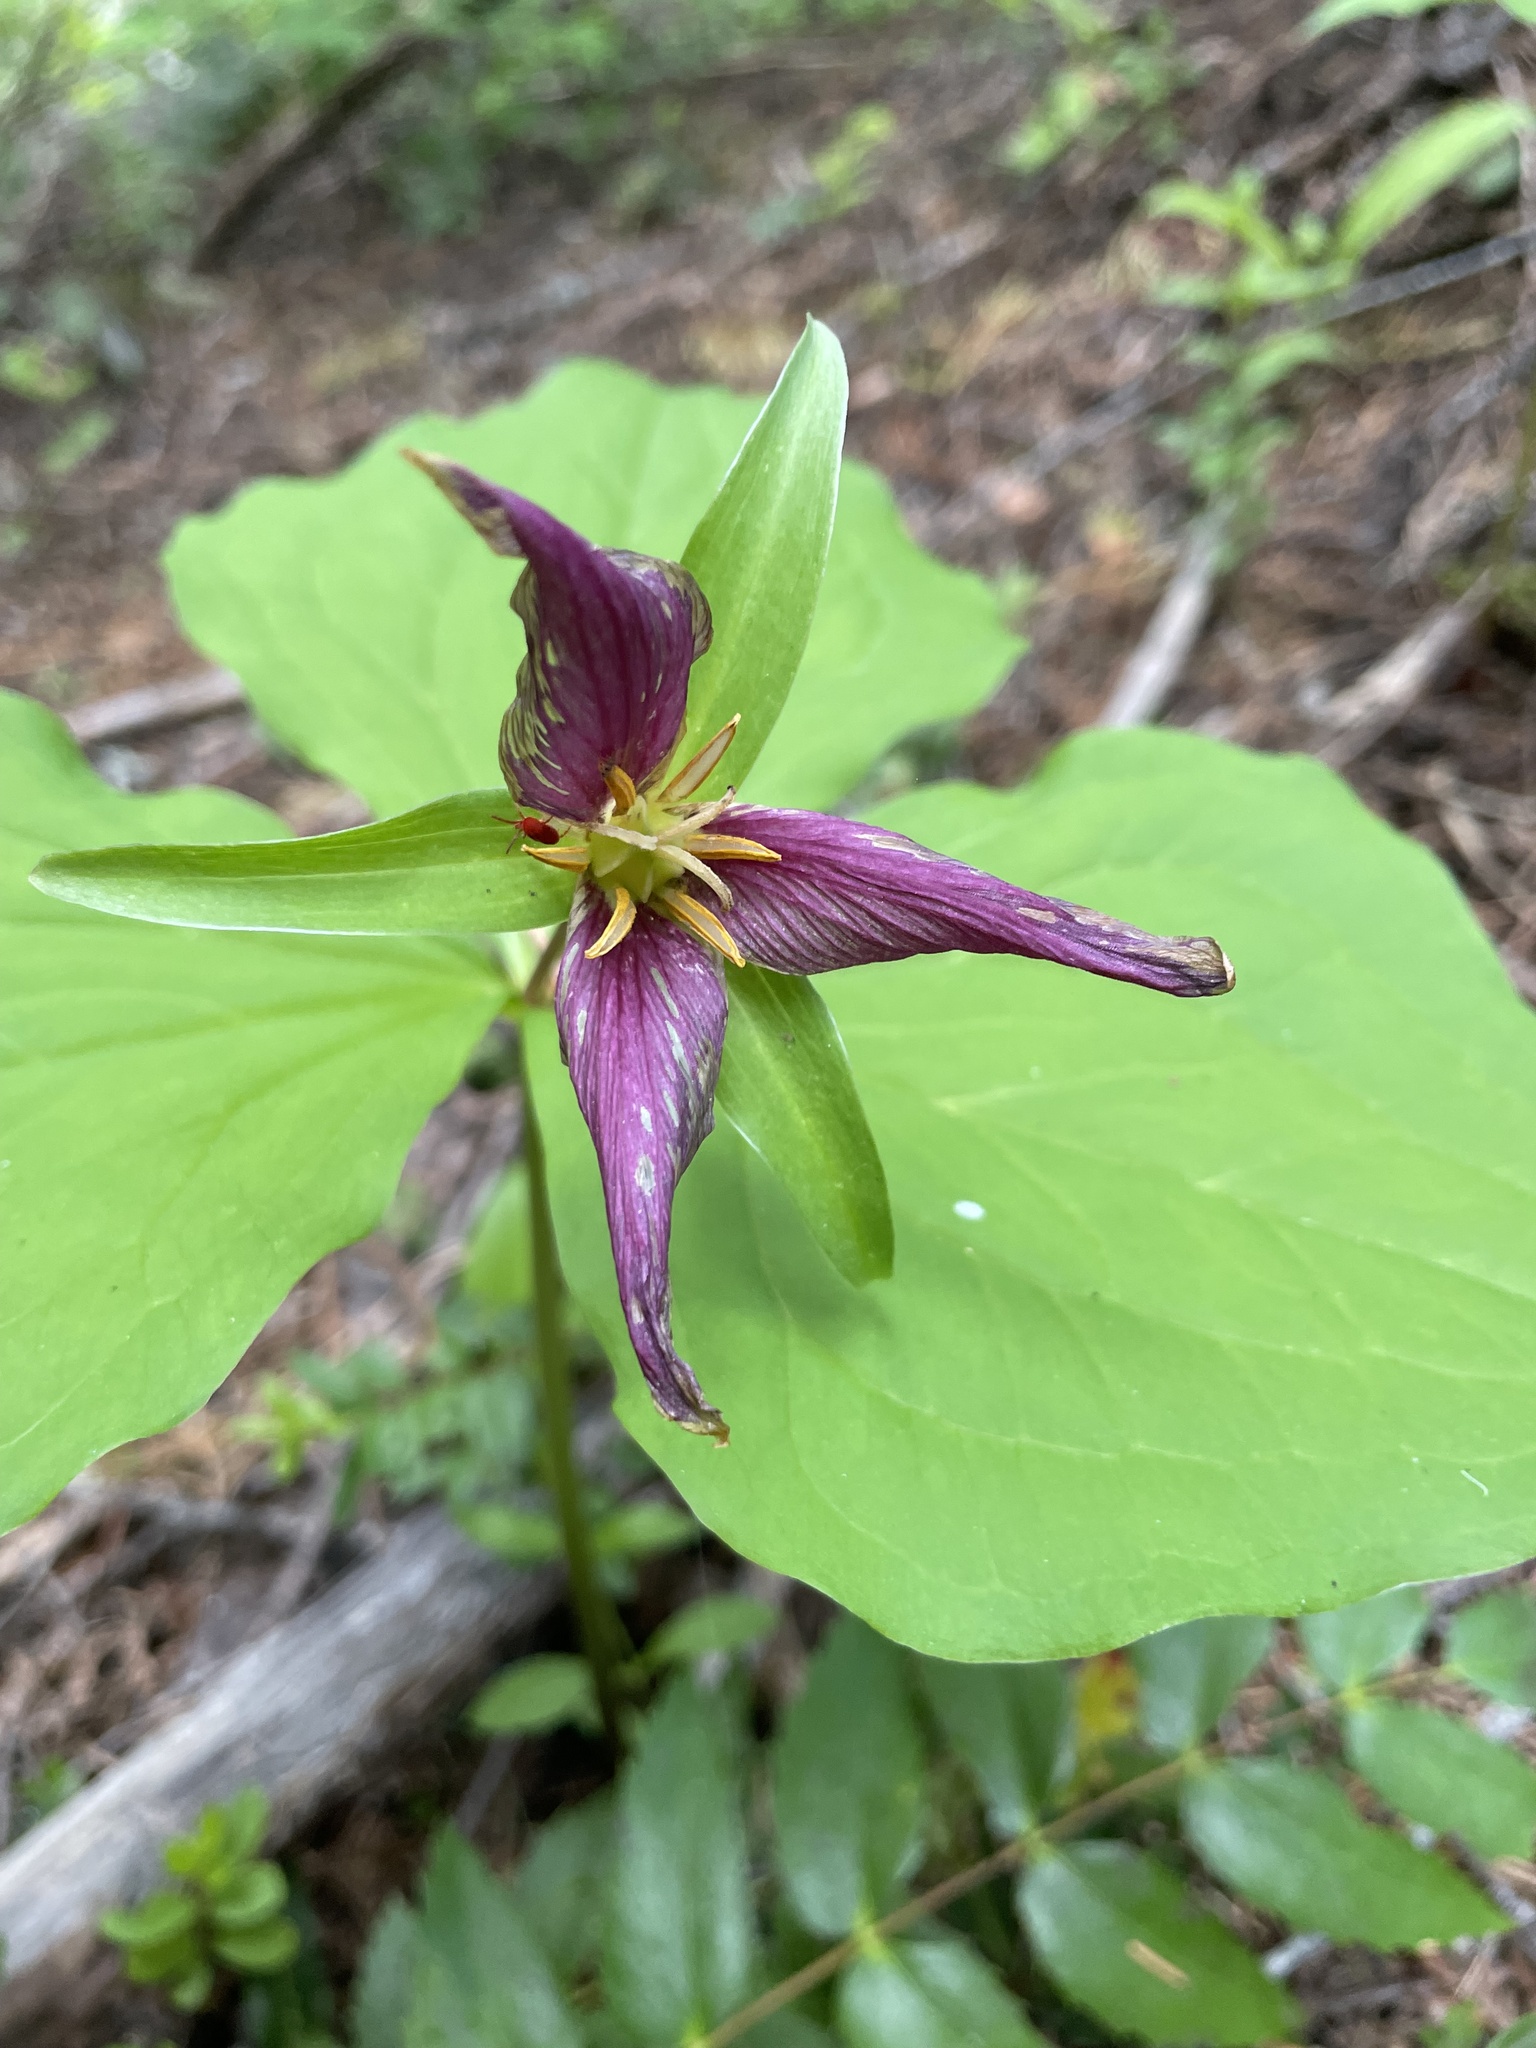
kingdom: Plantae
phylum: Tracheophyta
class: Liliopsida
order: Liliales
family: Melanthiaceae
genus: Trillium
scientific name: Trillium ovatum
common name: Pacific trillium
